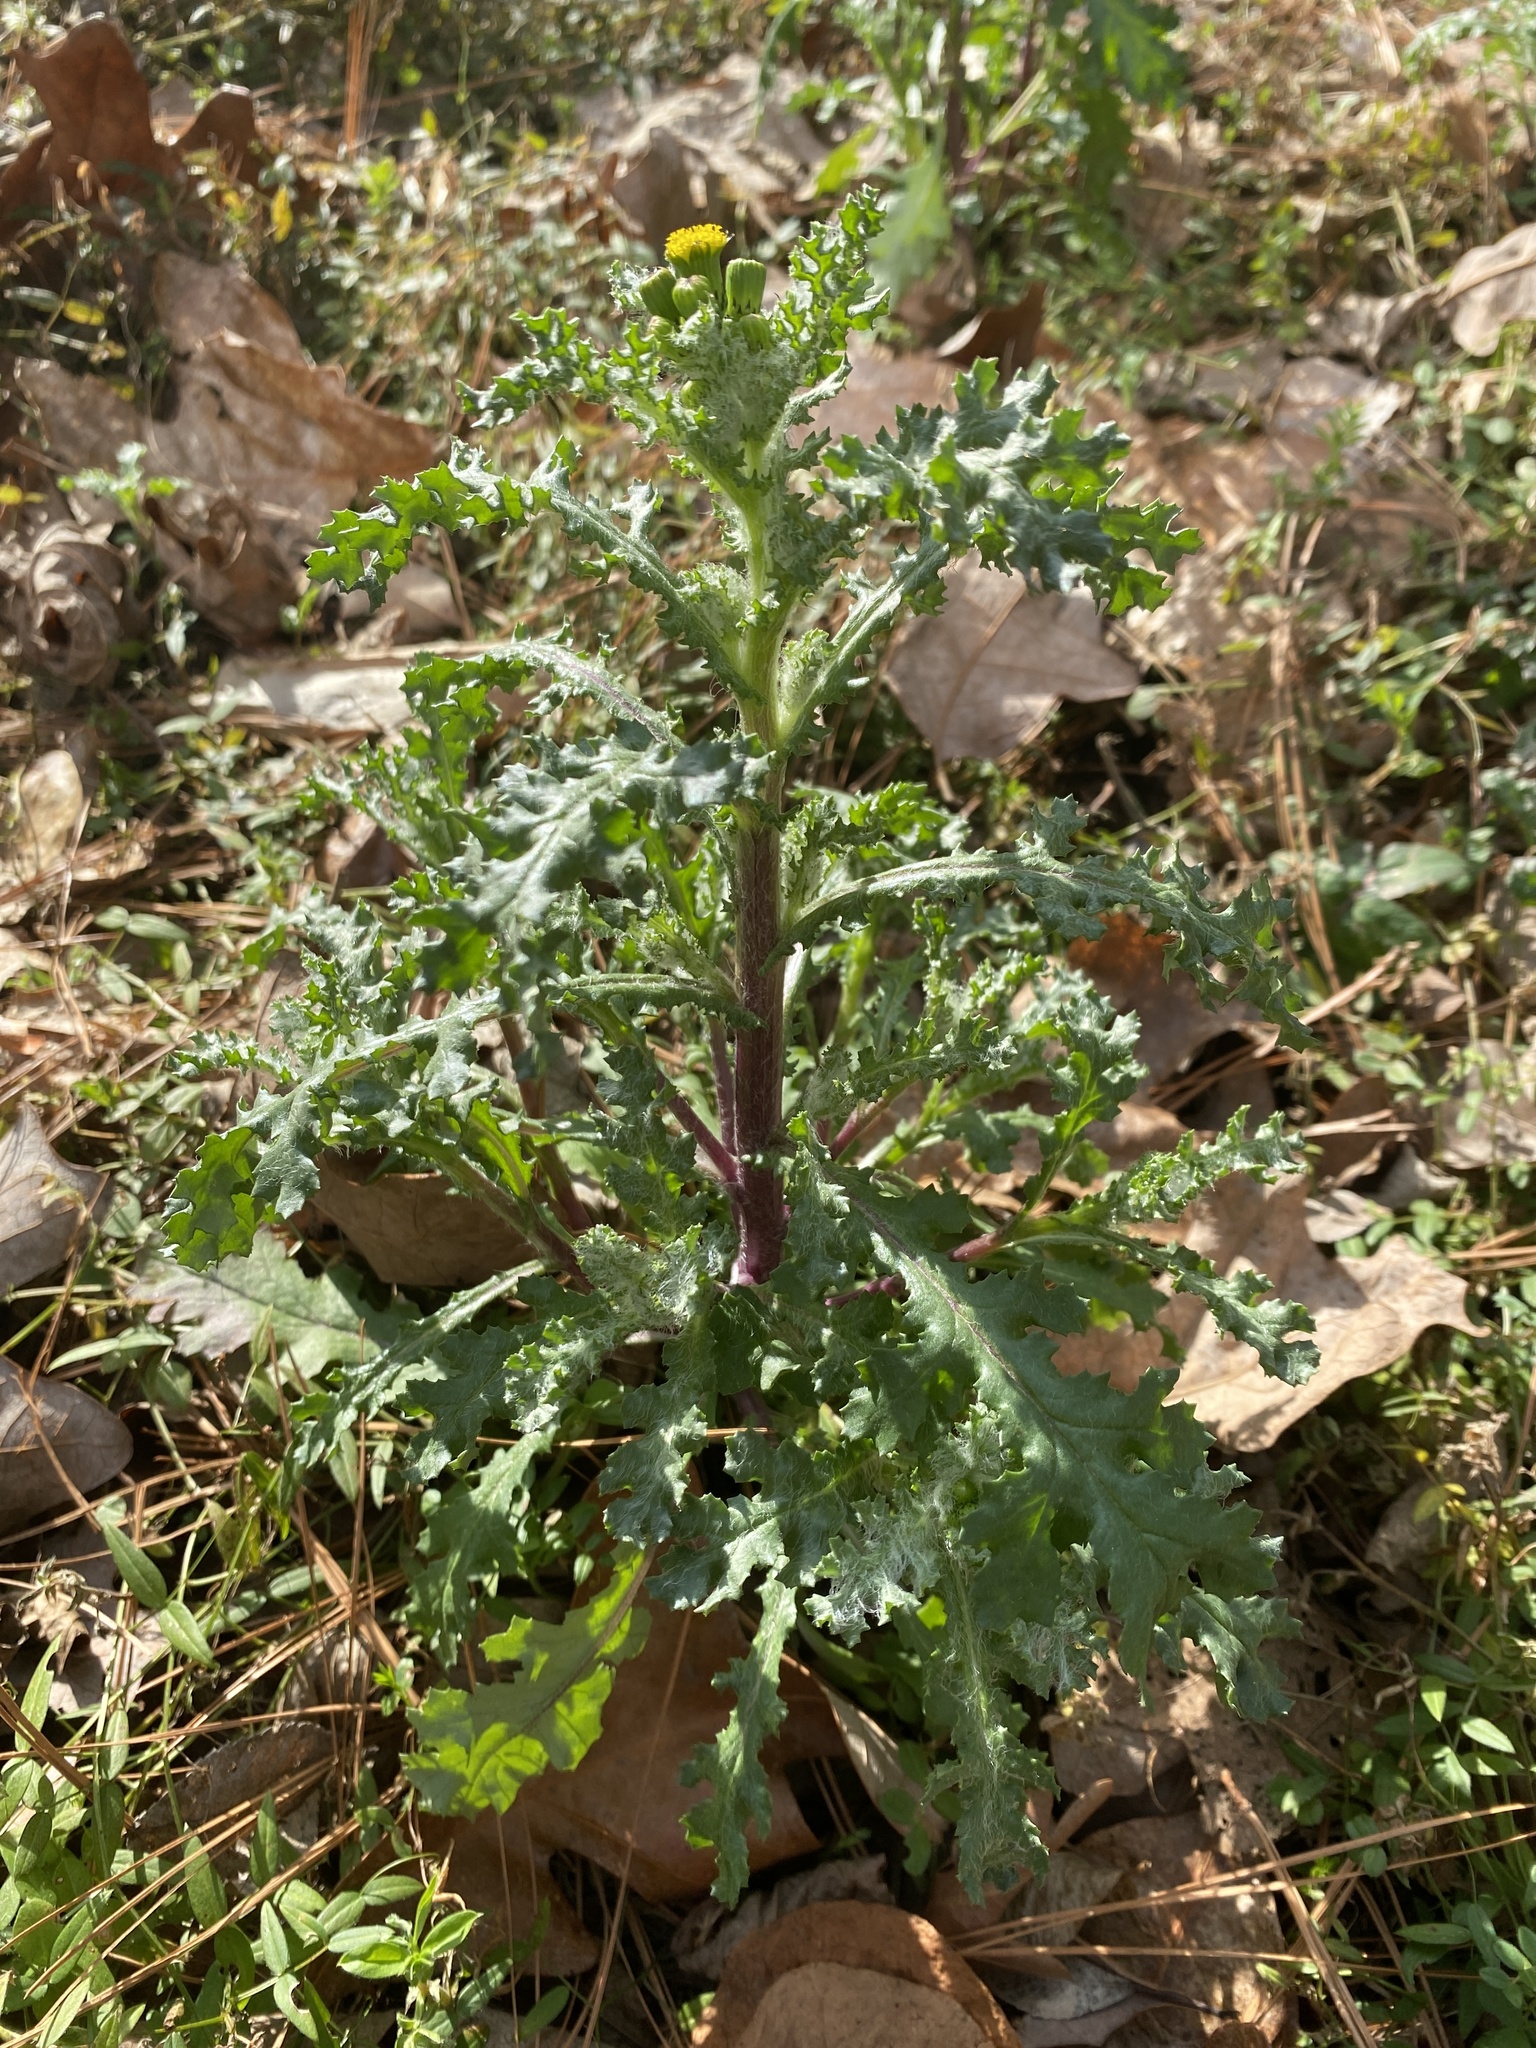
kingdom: Plantae
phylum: Tracheophyta
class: Magnoliopsida
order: Asterales
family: Asteraceae
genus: Senecio
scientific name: Senecio vulgaris
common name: Old-man-in-the-spring
